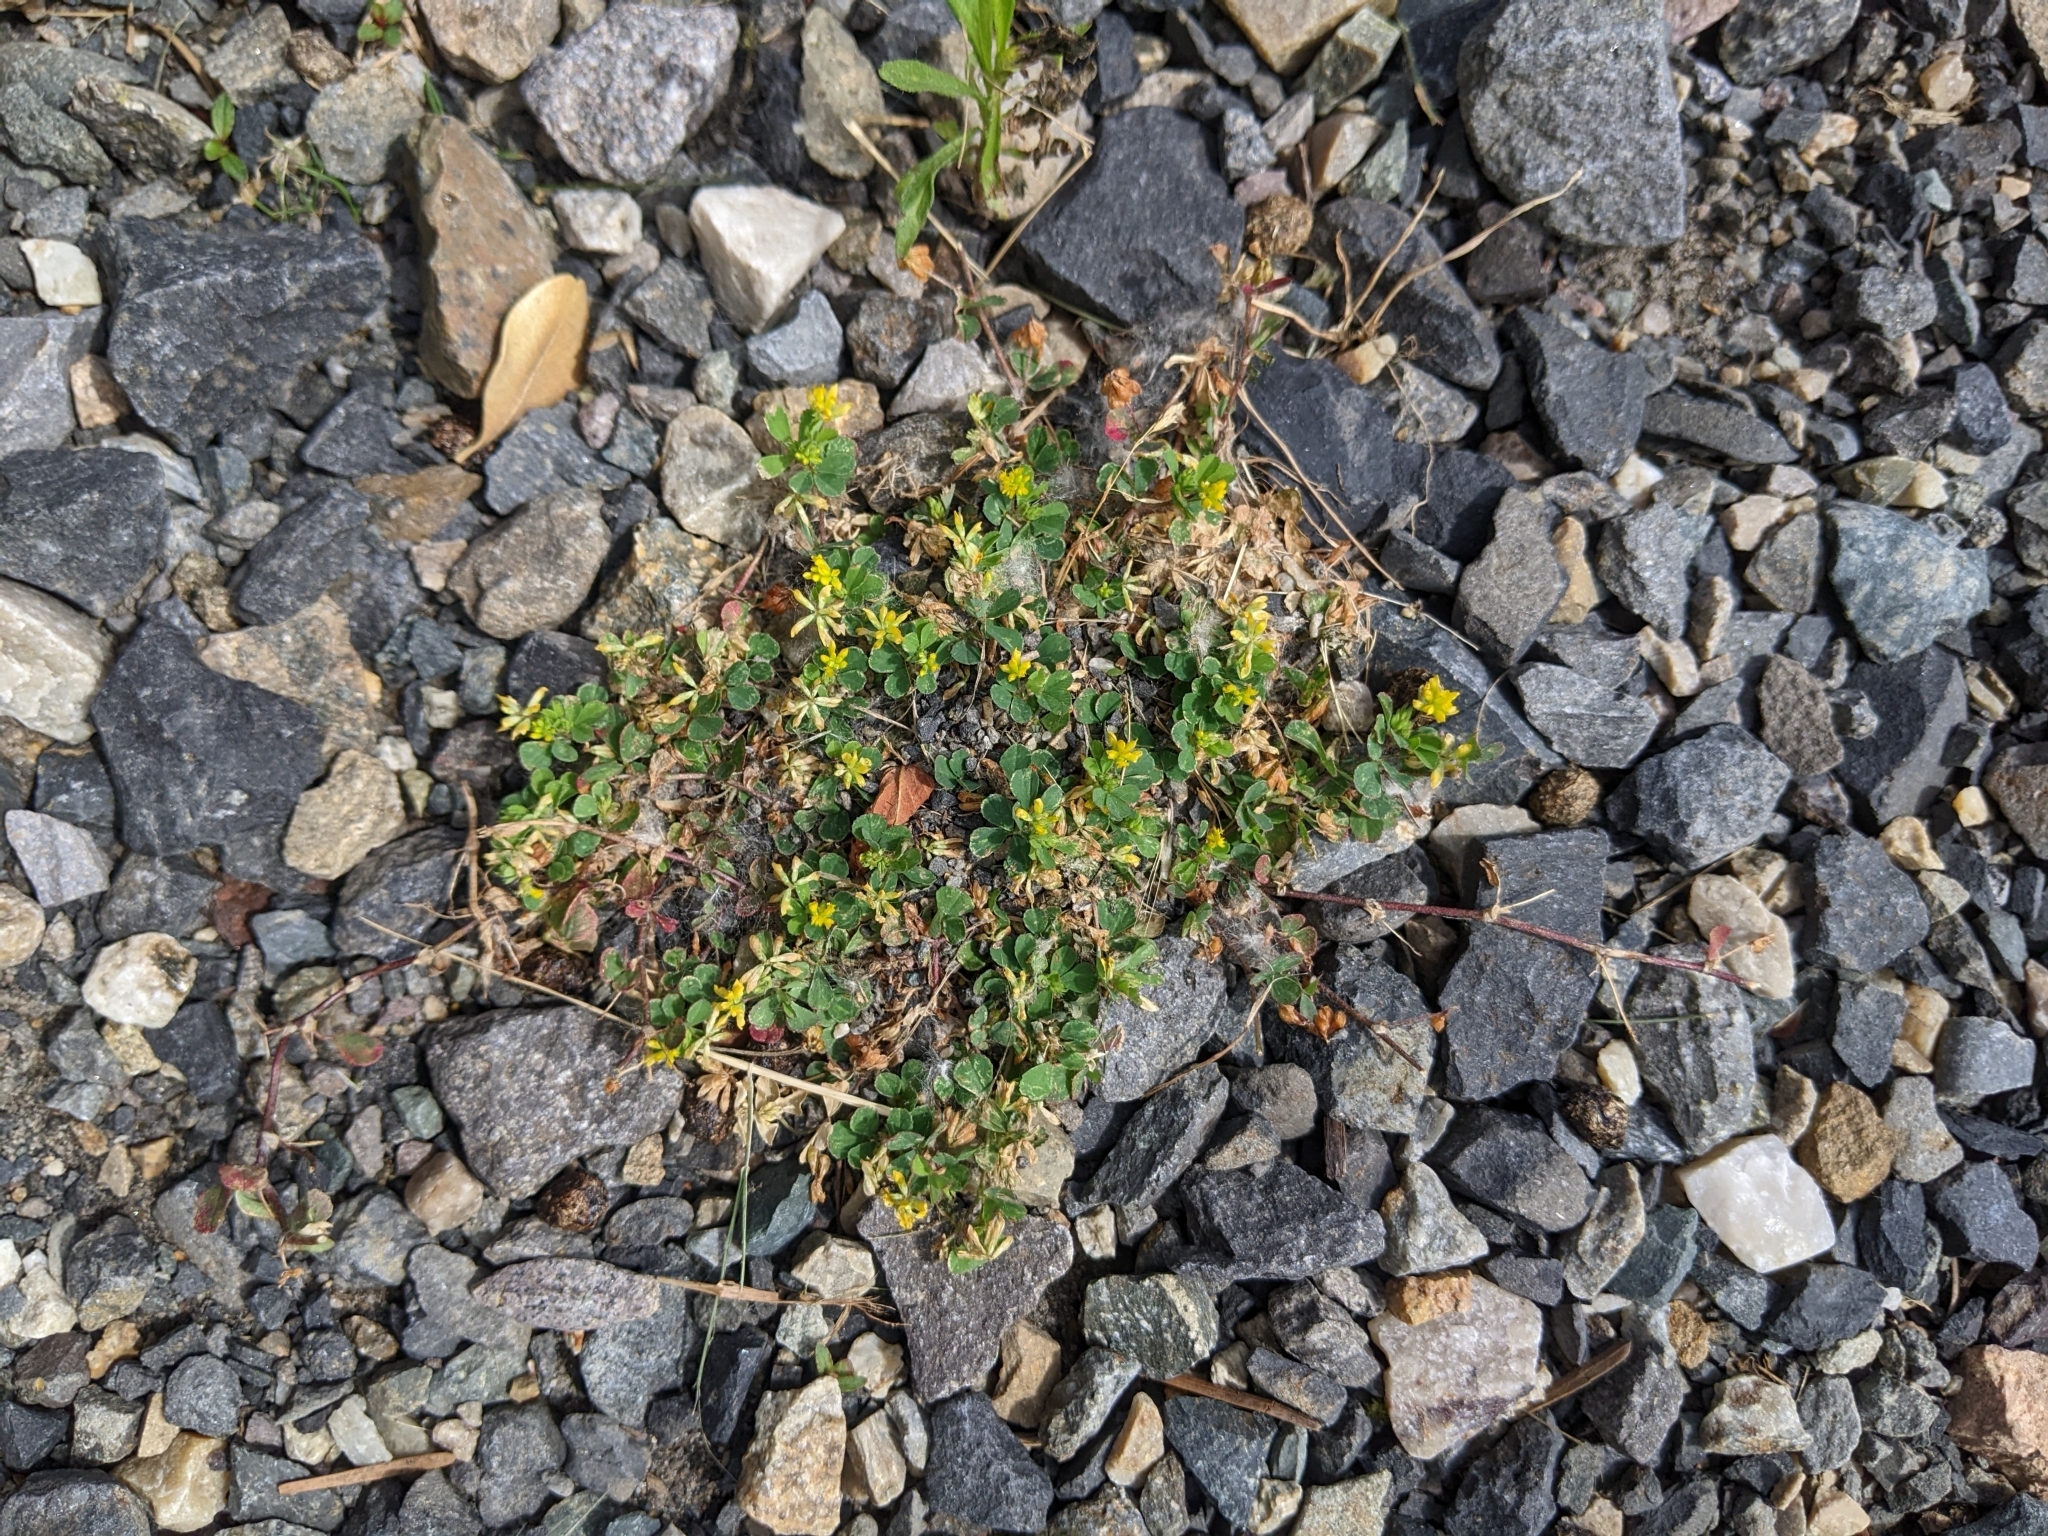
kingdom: Plantae
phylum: Tracheophyta
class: Magnoliopsida
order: Fabales
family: Fabaceae
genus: Trifolium
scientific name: Trifolium dubium
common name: Suckling clover
